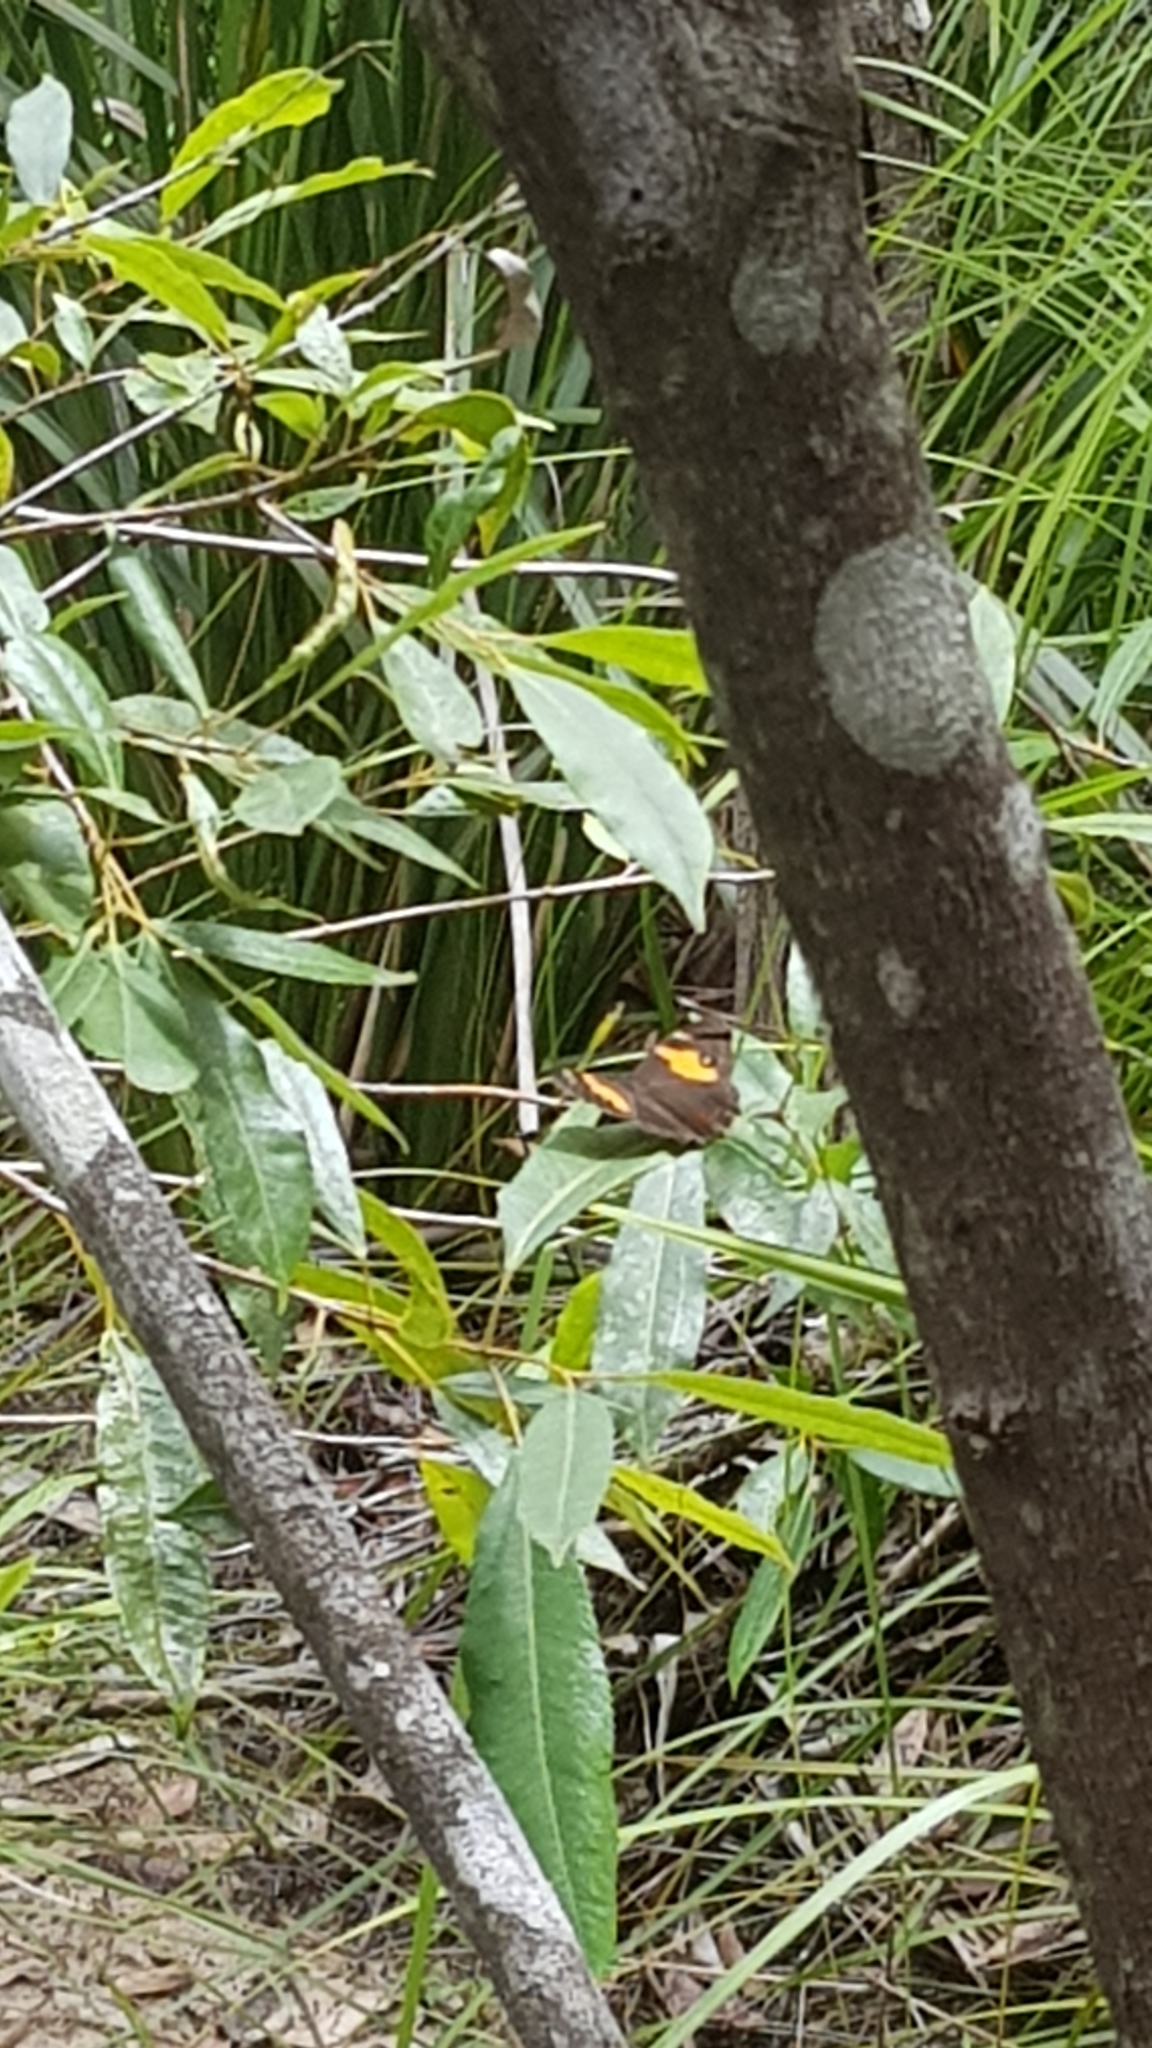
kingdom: Animalia
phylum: Arthropoda
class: Insecta
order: Lepidoptera
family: Nymphalidae
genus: Tisiphone
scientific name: Tisiphone abeona
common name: Swordgrass brown
